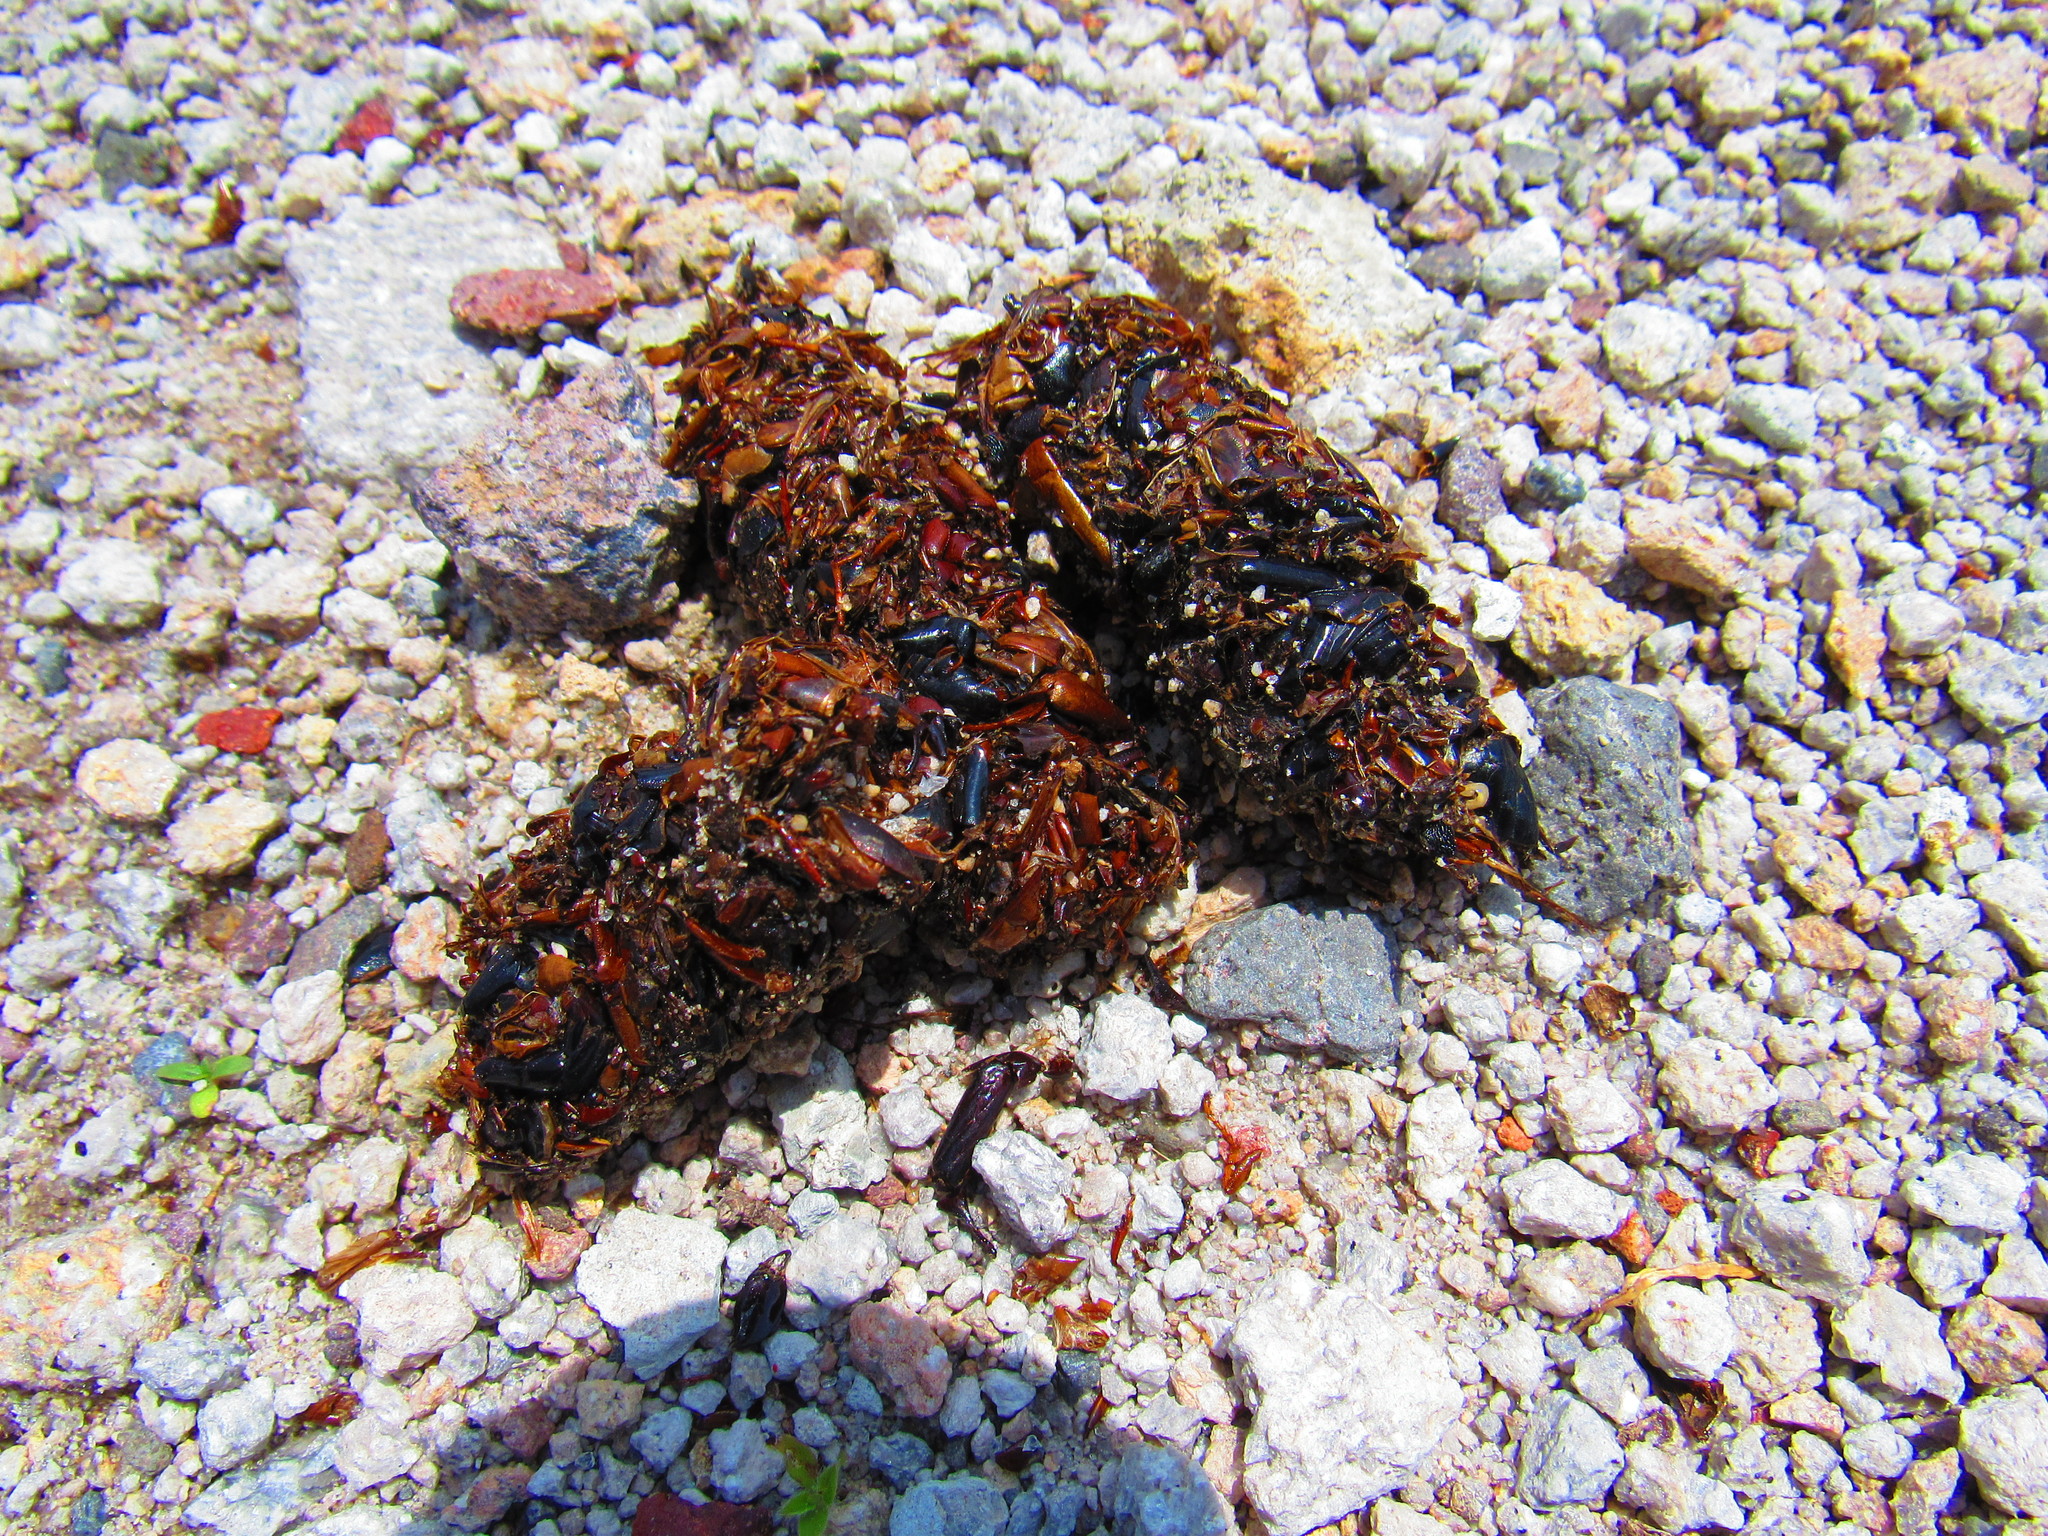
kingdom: Animalia
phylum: Chordata
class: Mammalia
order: Carnivora
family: Canidae
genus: Urocyon
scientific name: Urocyon cinereoargenteus
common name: Gray fox
